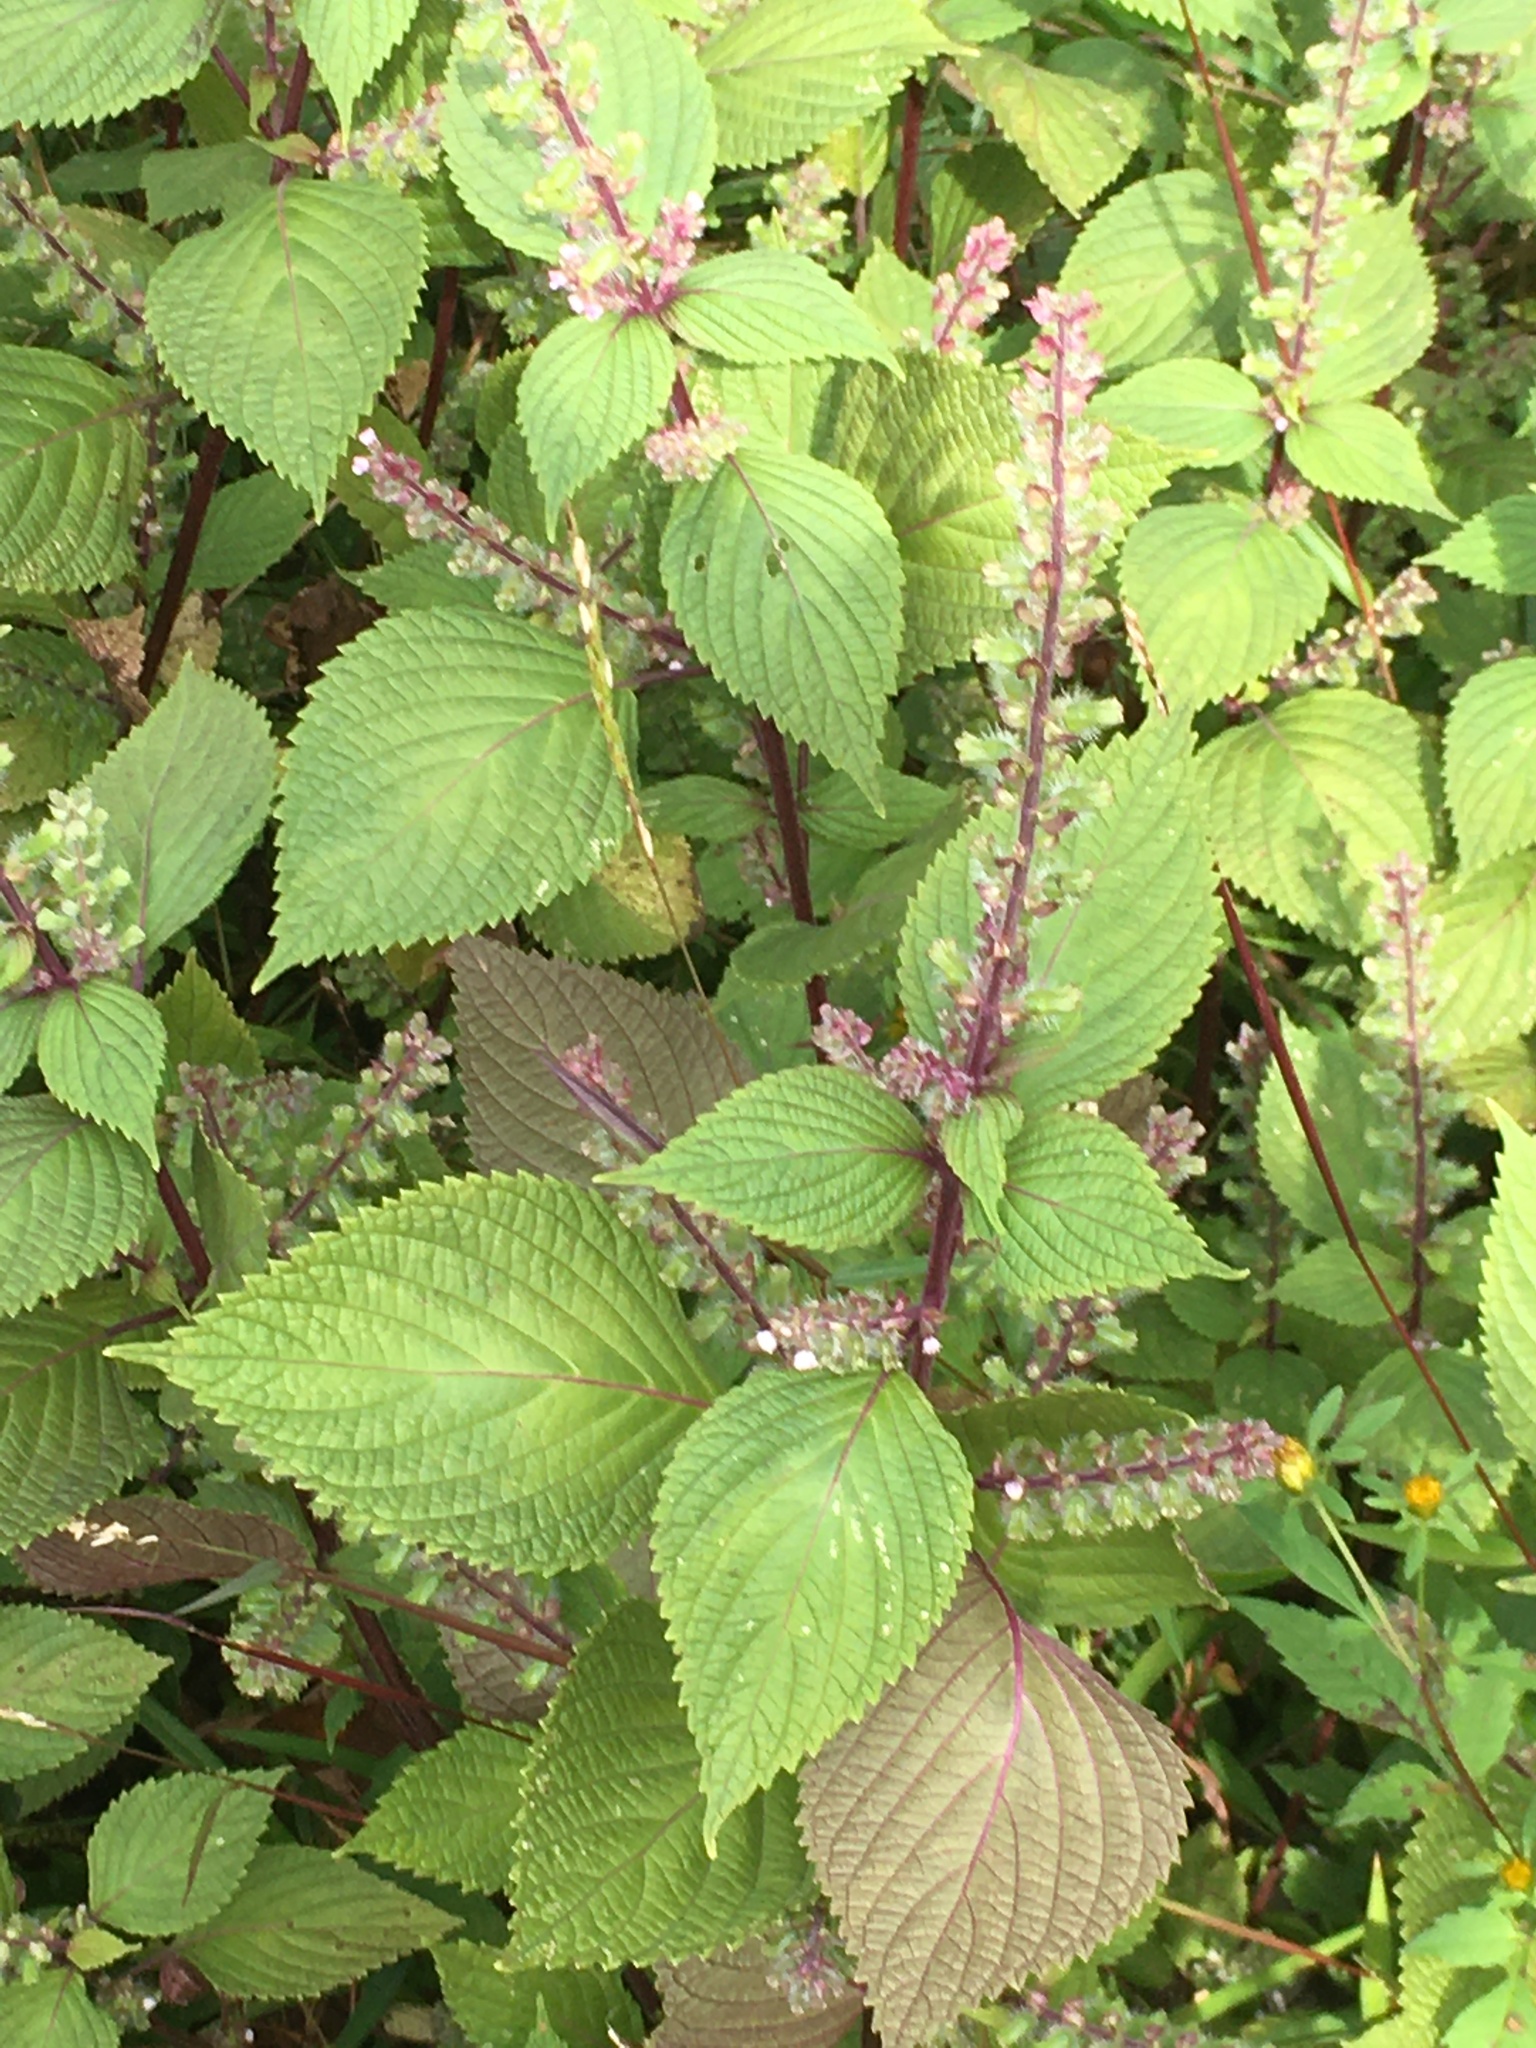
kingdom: Plantae
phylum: Tracheophyta
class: Magnoliopsida
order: Lamiales
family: Lamiaceae
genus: Perilla
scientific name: Perilla frutescens
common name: Perilla
